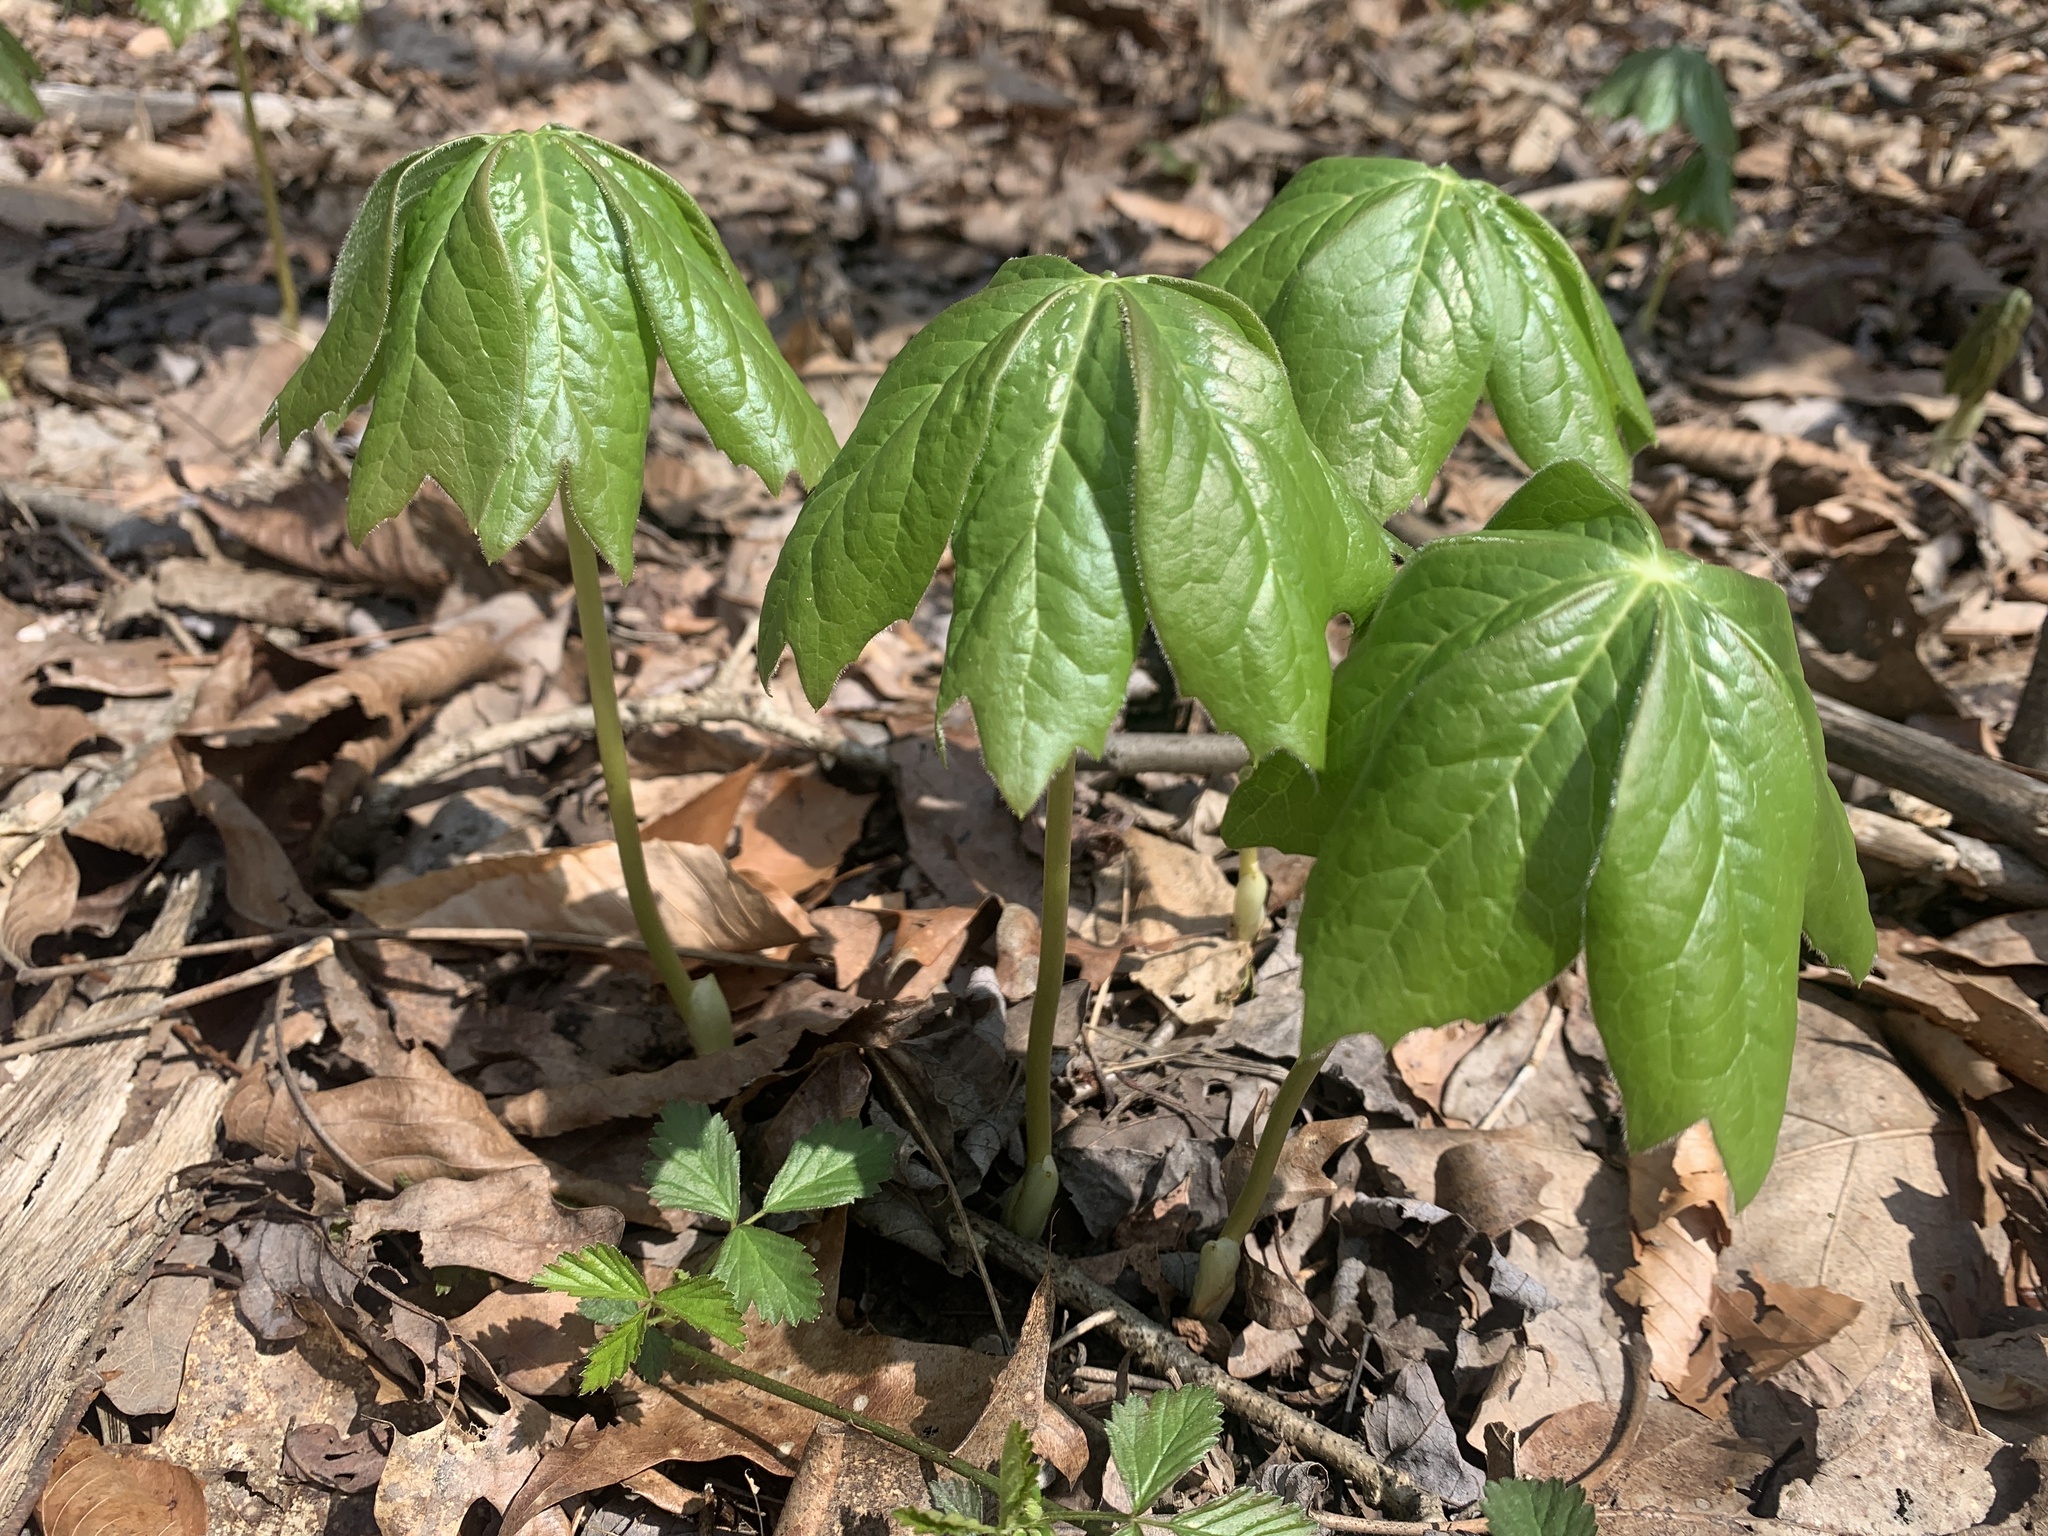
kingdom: Plantae
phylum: Tracheophyta
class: Magnoliopsida
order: Ranunculales
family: Berberidaceae
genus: Podophyllum
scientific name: Podophyllum peltatum
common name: Wild mandrake
